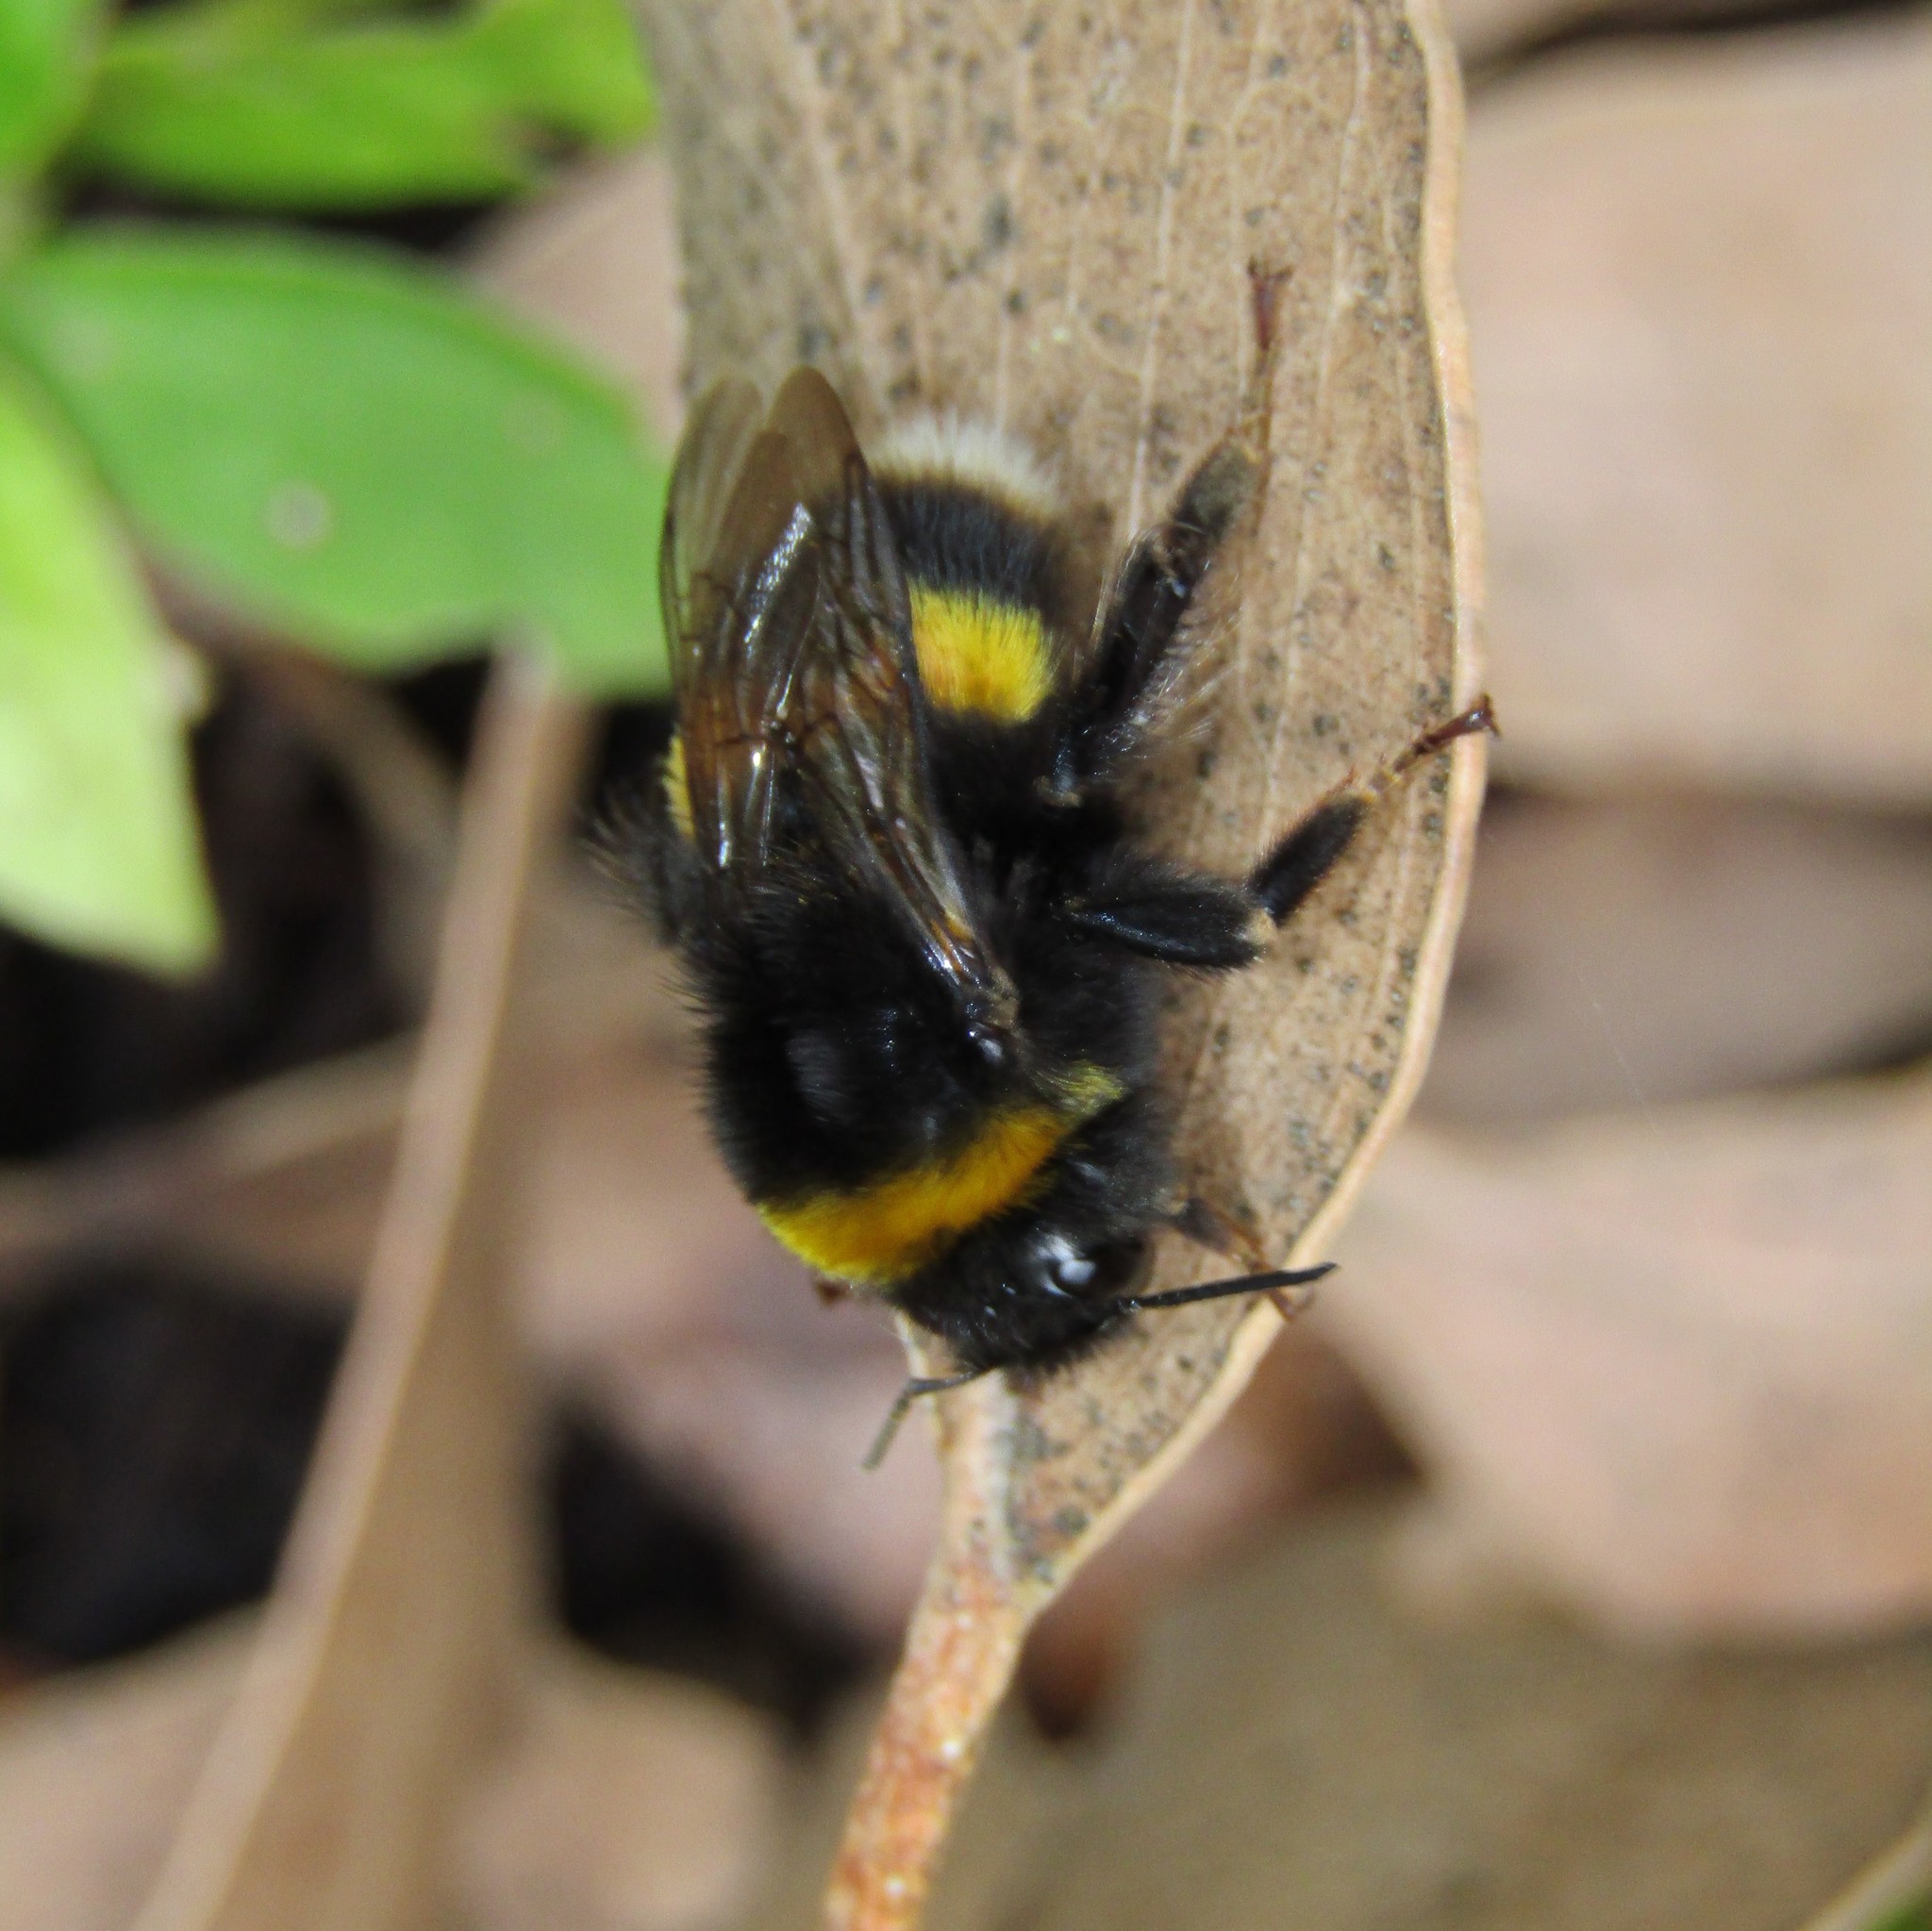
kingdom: Animalia
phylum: Arthropoda
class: Insecta
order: Hymenoptera
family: Apidae
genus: Bombus
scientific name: Bombus terrestris
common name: Buff-tailed bumblebee
